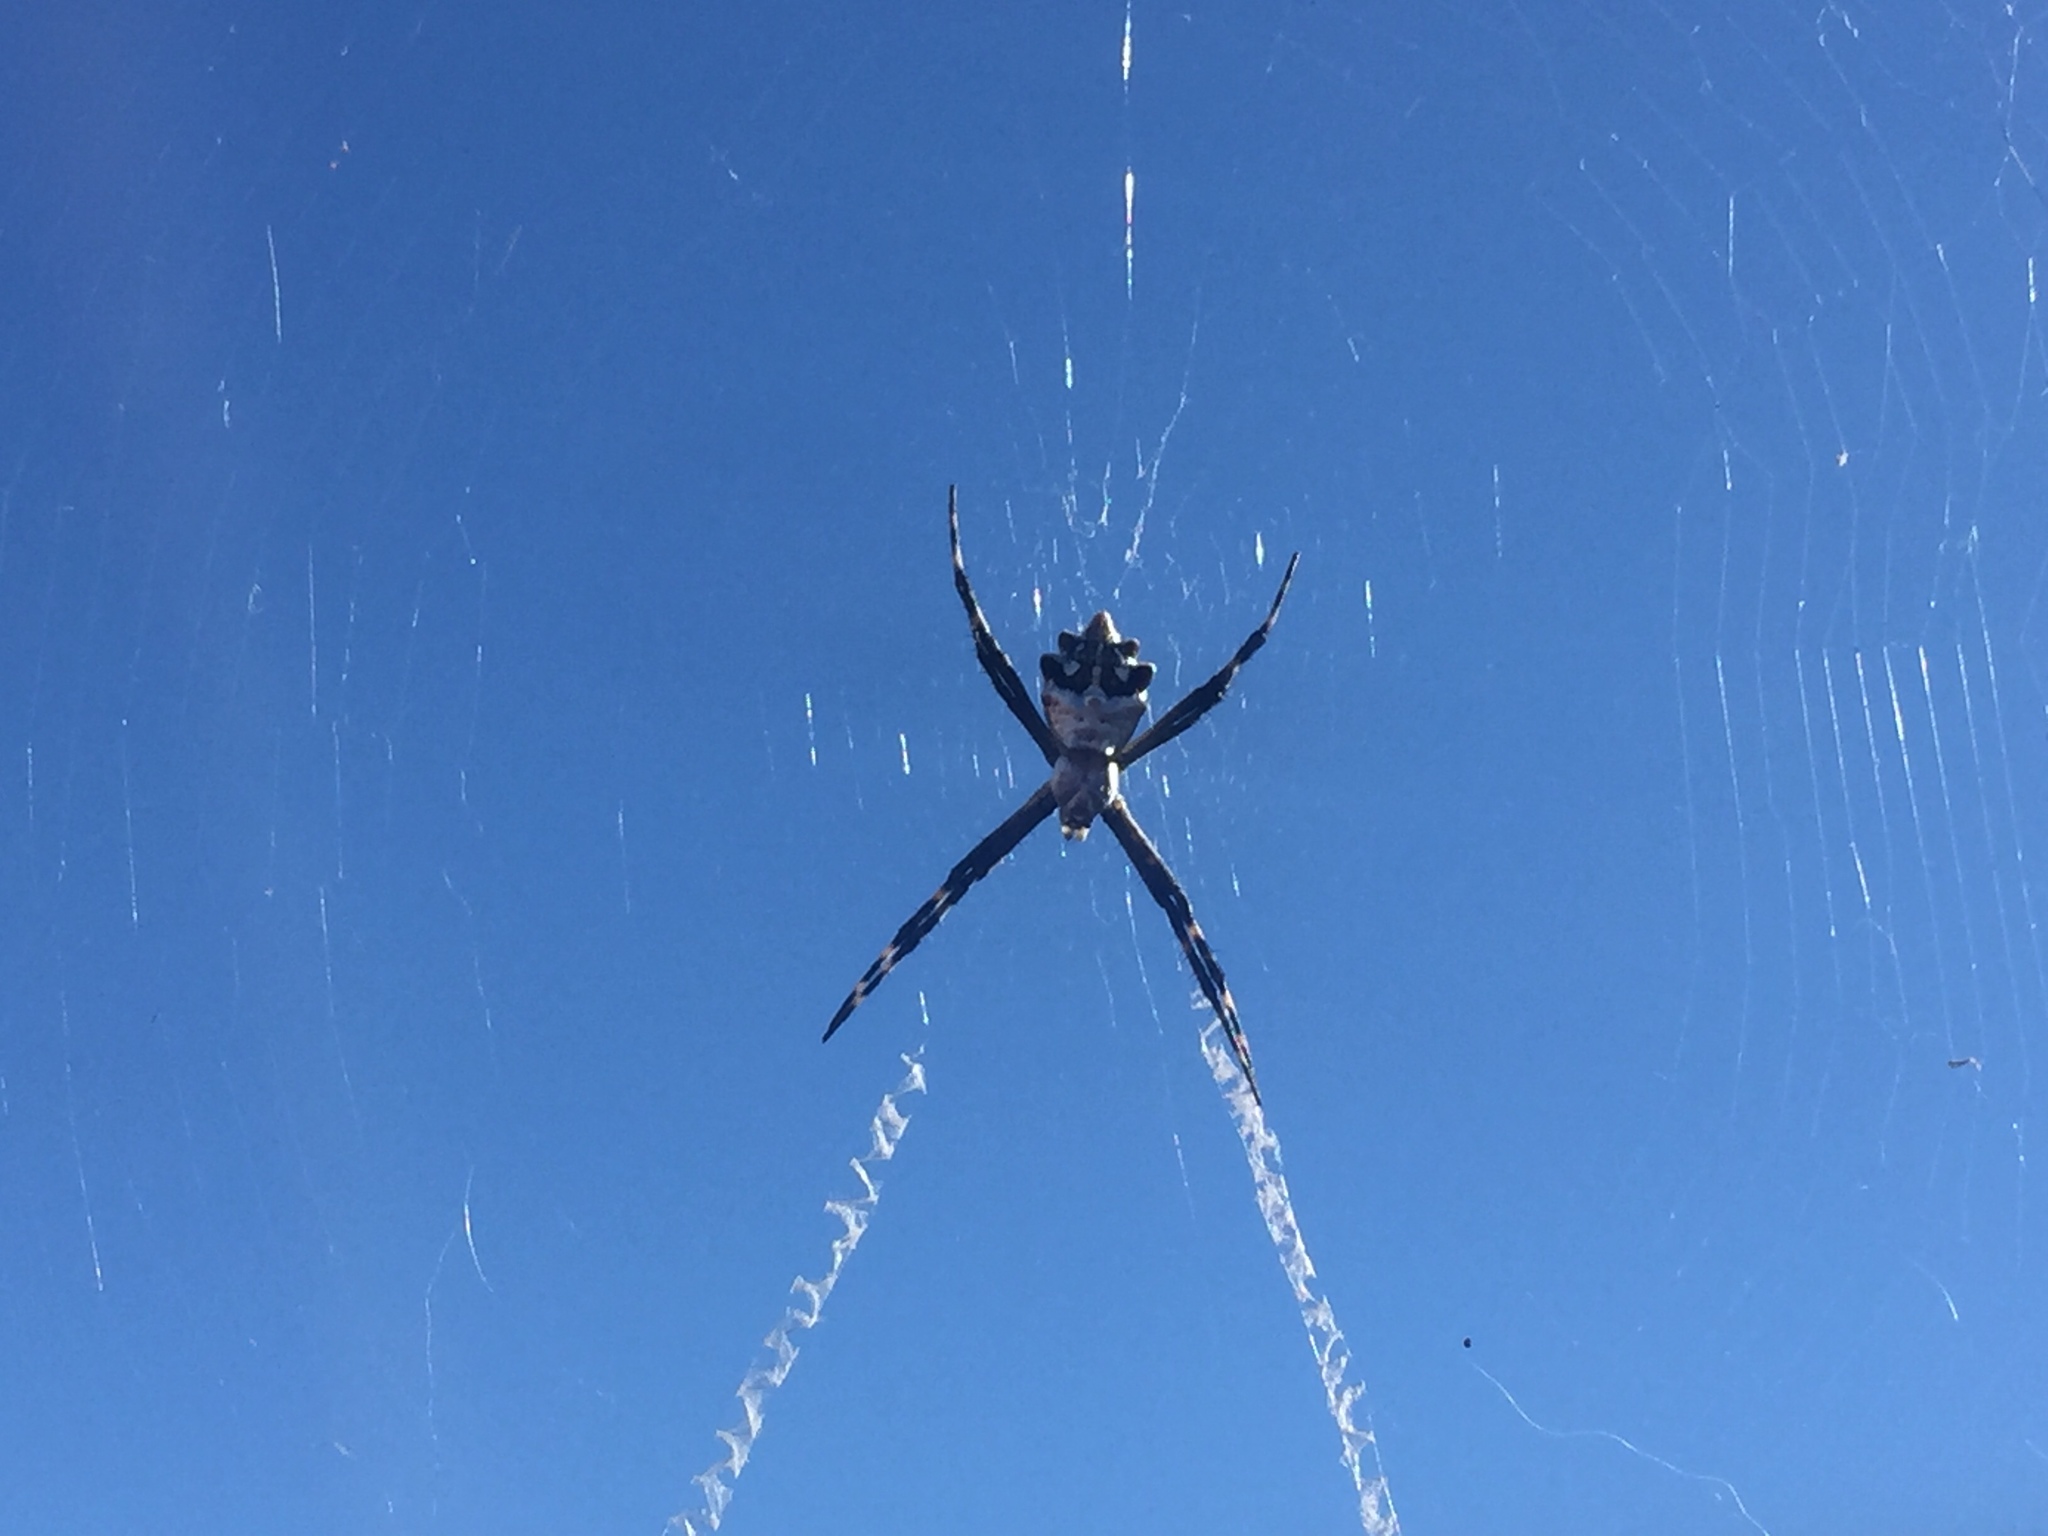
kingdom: Animalia
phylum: Arthropoda
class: Arachnida
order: Araneae
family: Araneidae
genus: Argiope
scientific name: Argiope argentata
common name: Orb weavers
